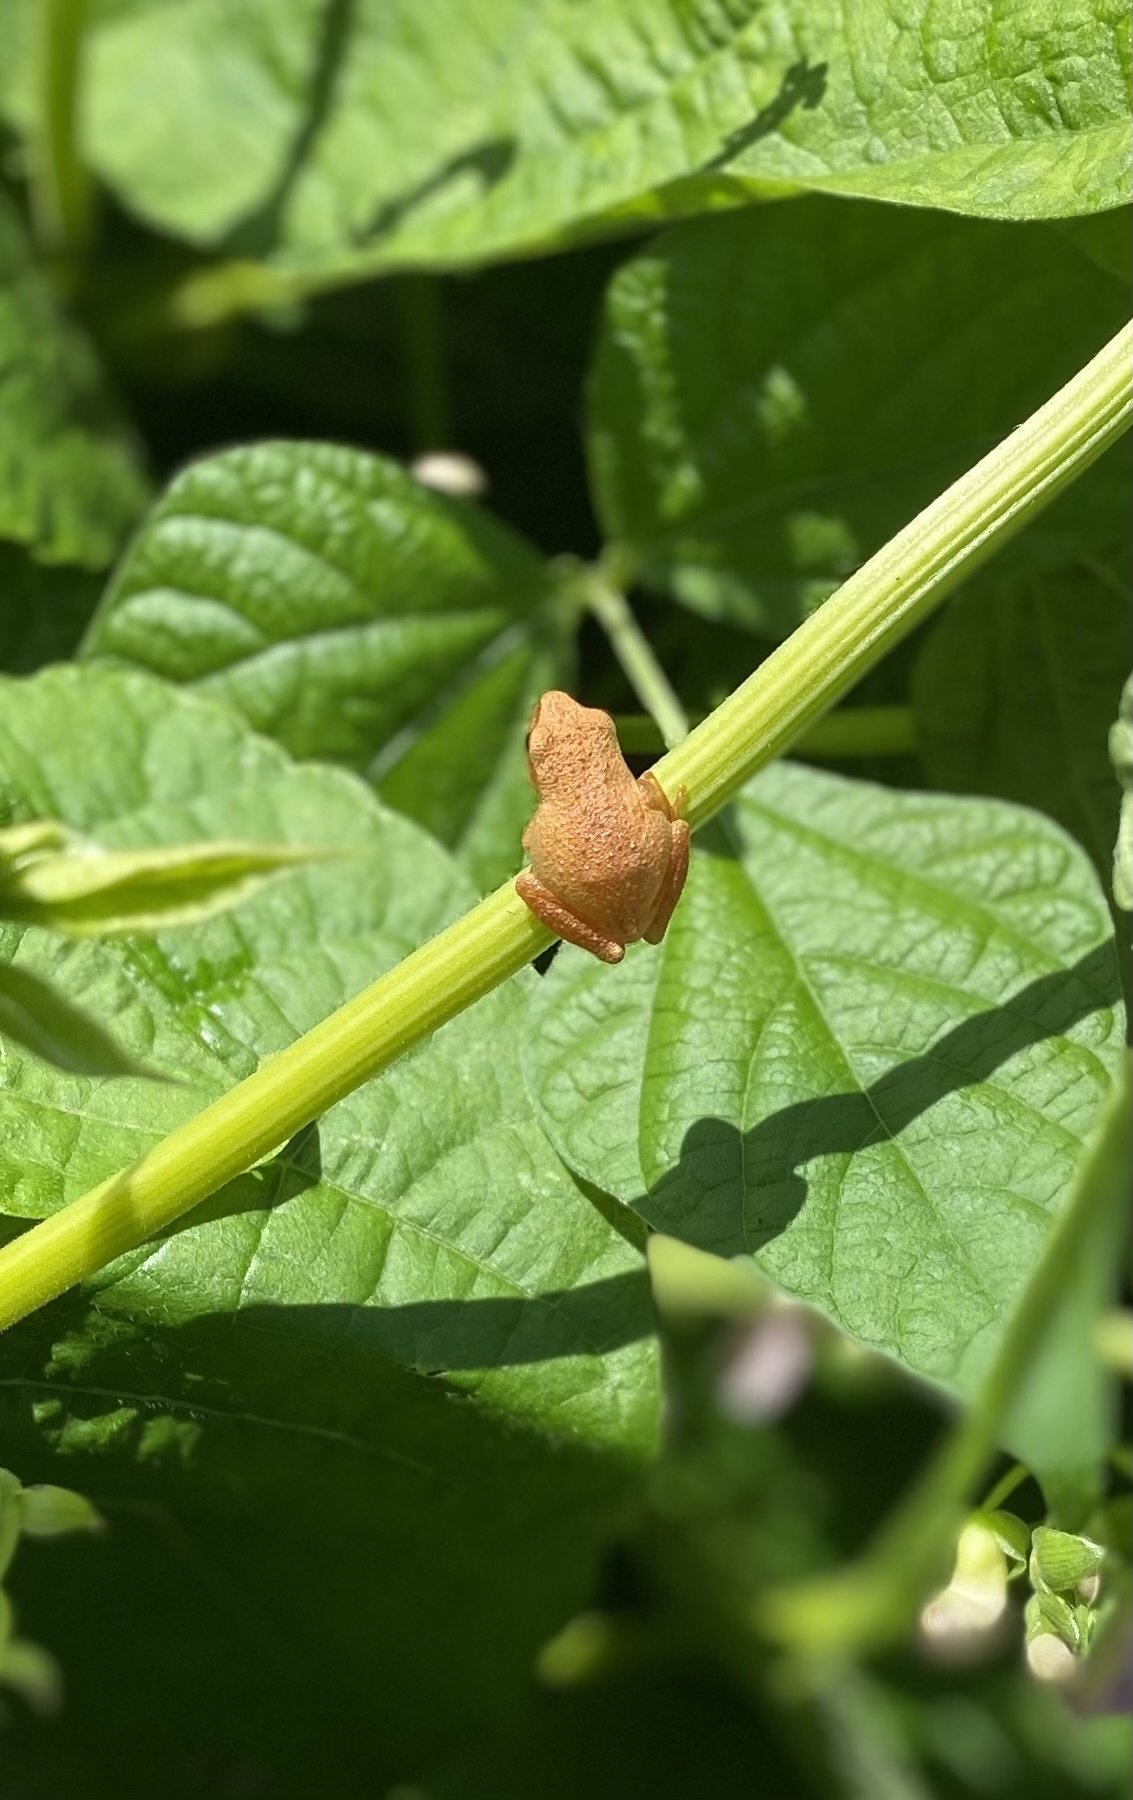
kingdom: Animalia
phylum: Chordata
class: Amphibia
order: Anura
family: Hylidae
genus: Pseudacris
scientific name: Pseudacris crucifer
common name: Spring peeper
